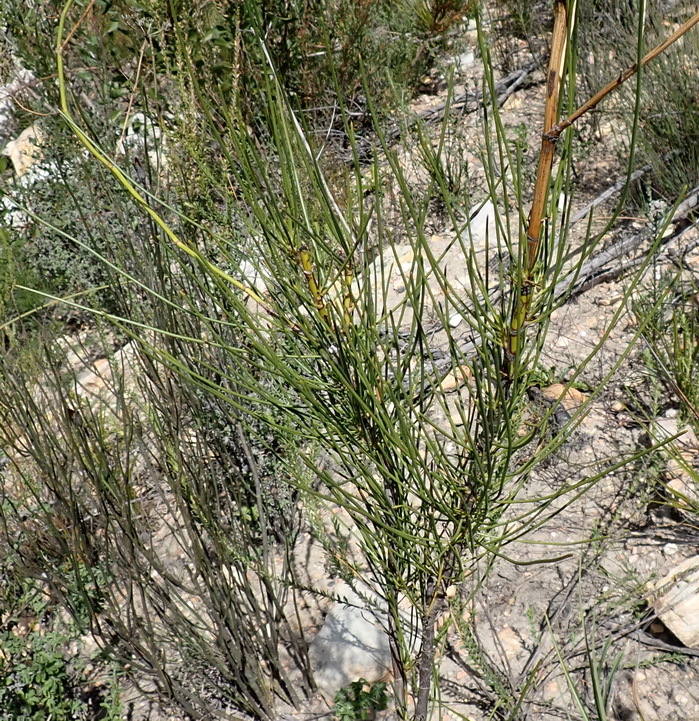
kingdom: Plantae
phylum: Tracheophyta
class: Magnoliopsida
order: Apiales
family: Apiaceae
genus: Anginon
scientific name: Anginon difforme
